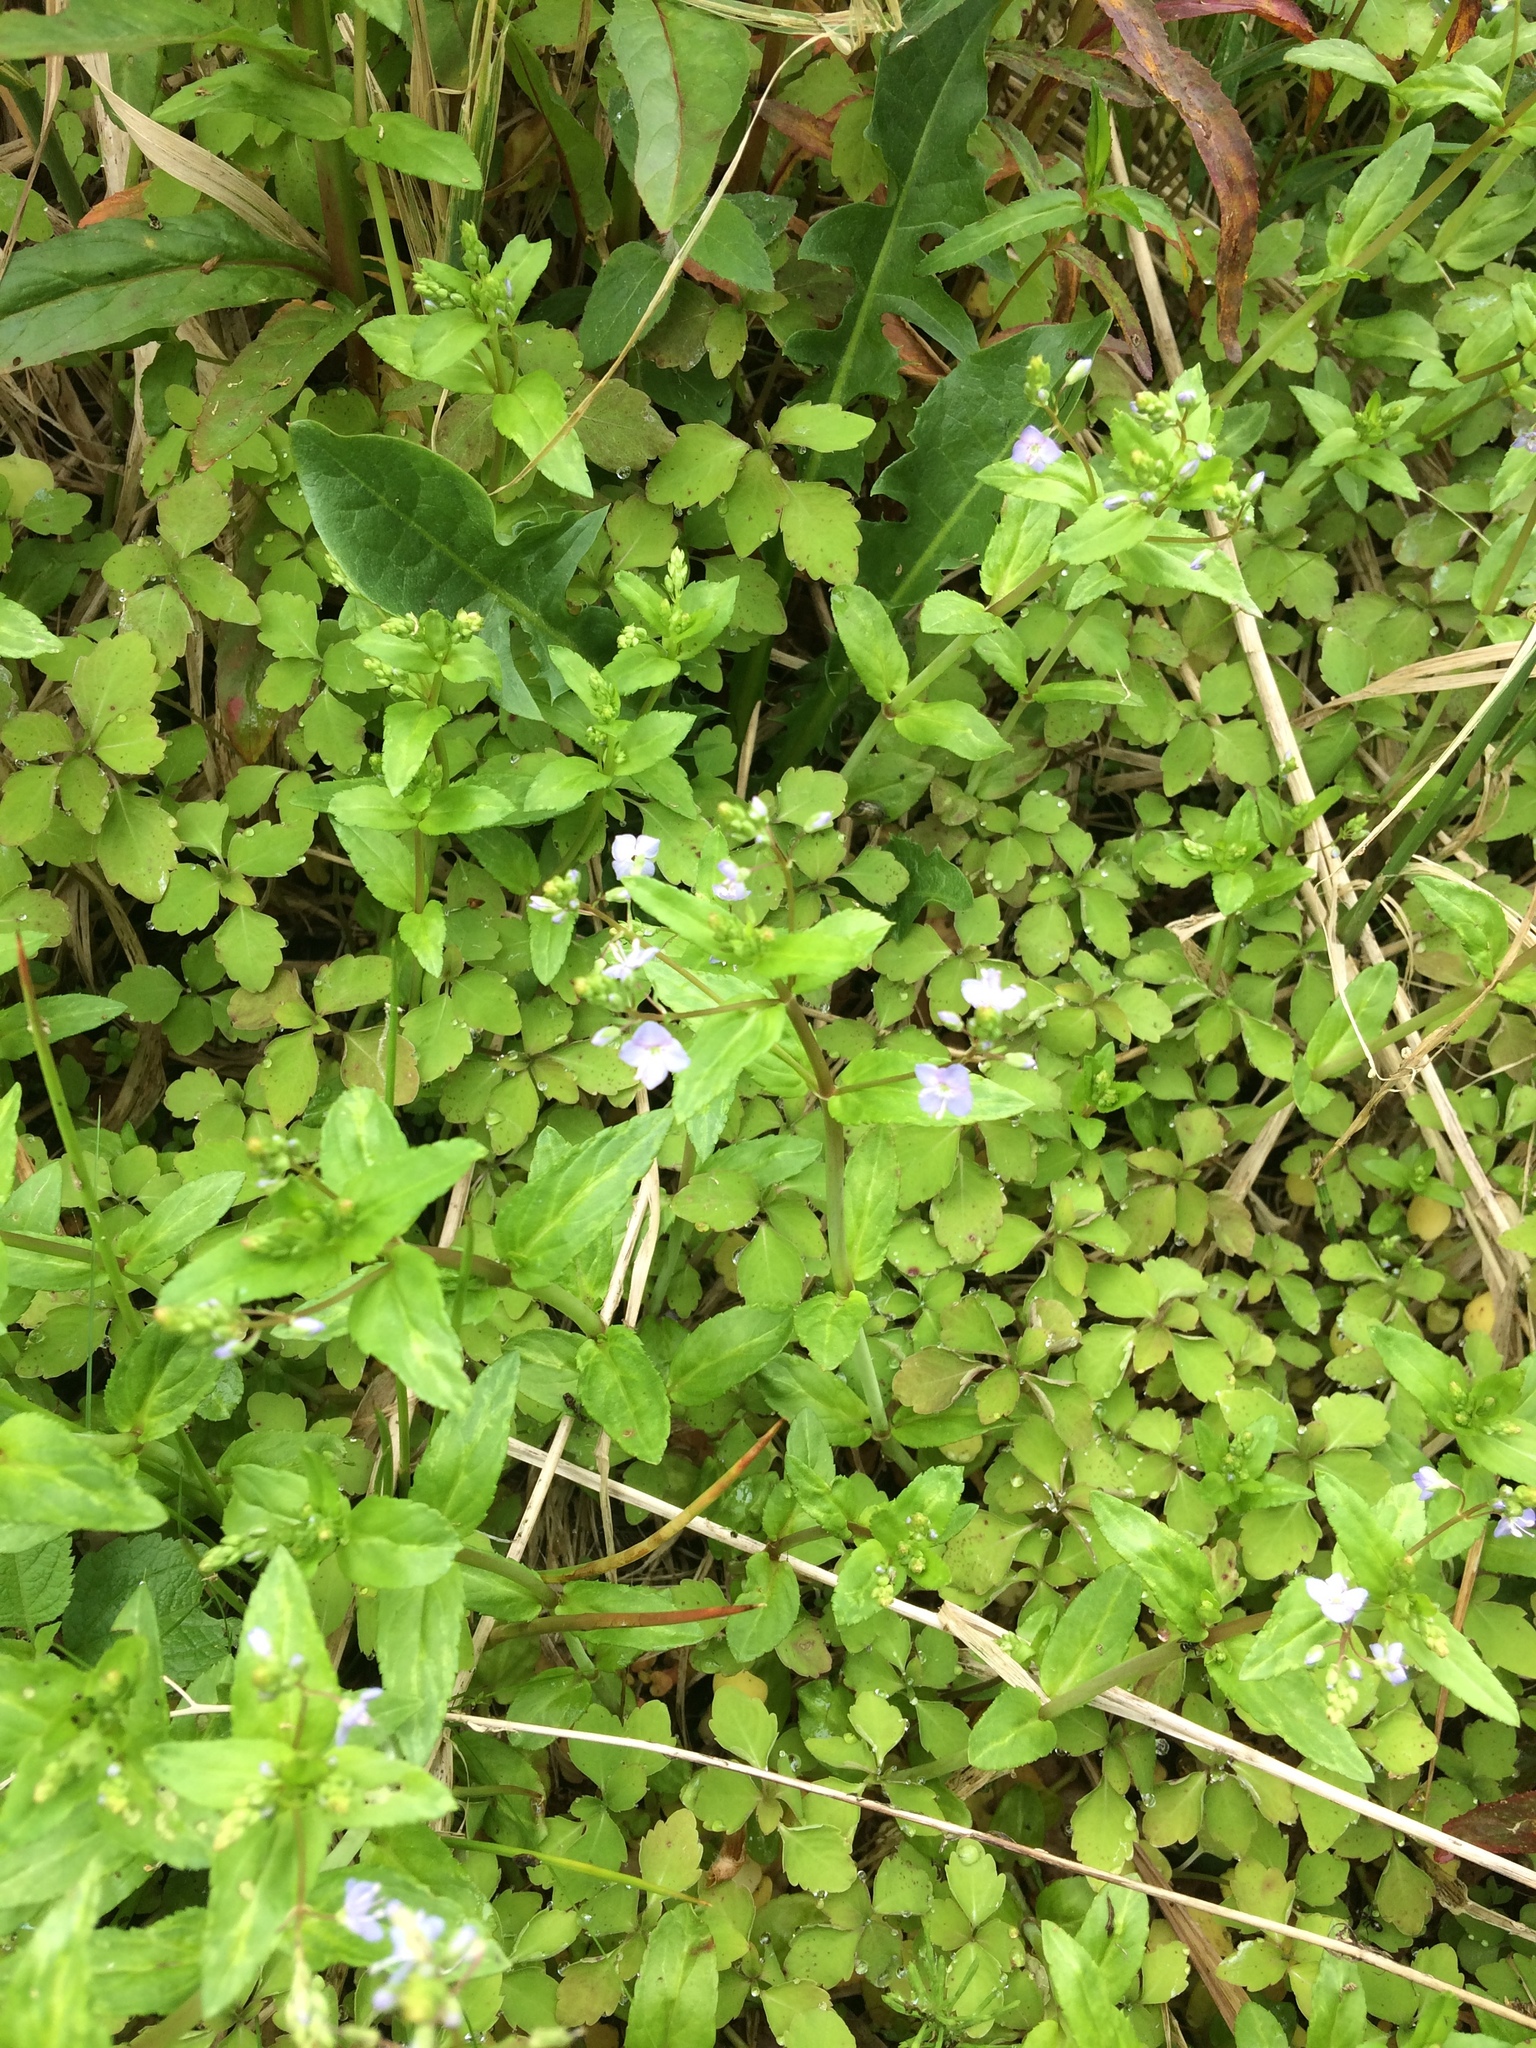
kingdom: Plantae
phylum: Tracheophyta
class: Magnoliopsida
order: Lamiales
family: Plantaginaceae
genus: Veronica
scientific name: Veronica anagallis-aquatica
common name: Water speedwell
